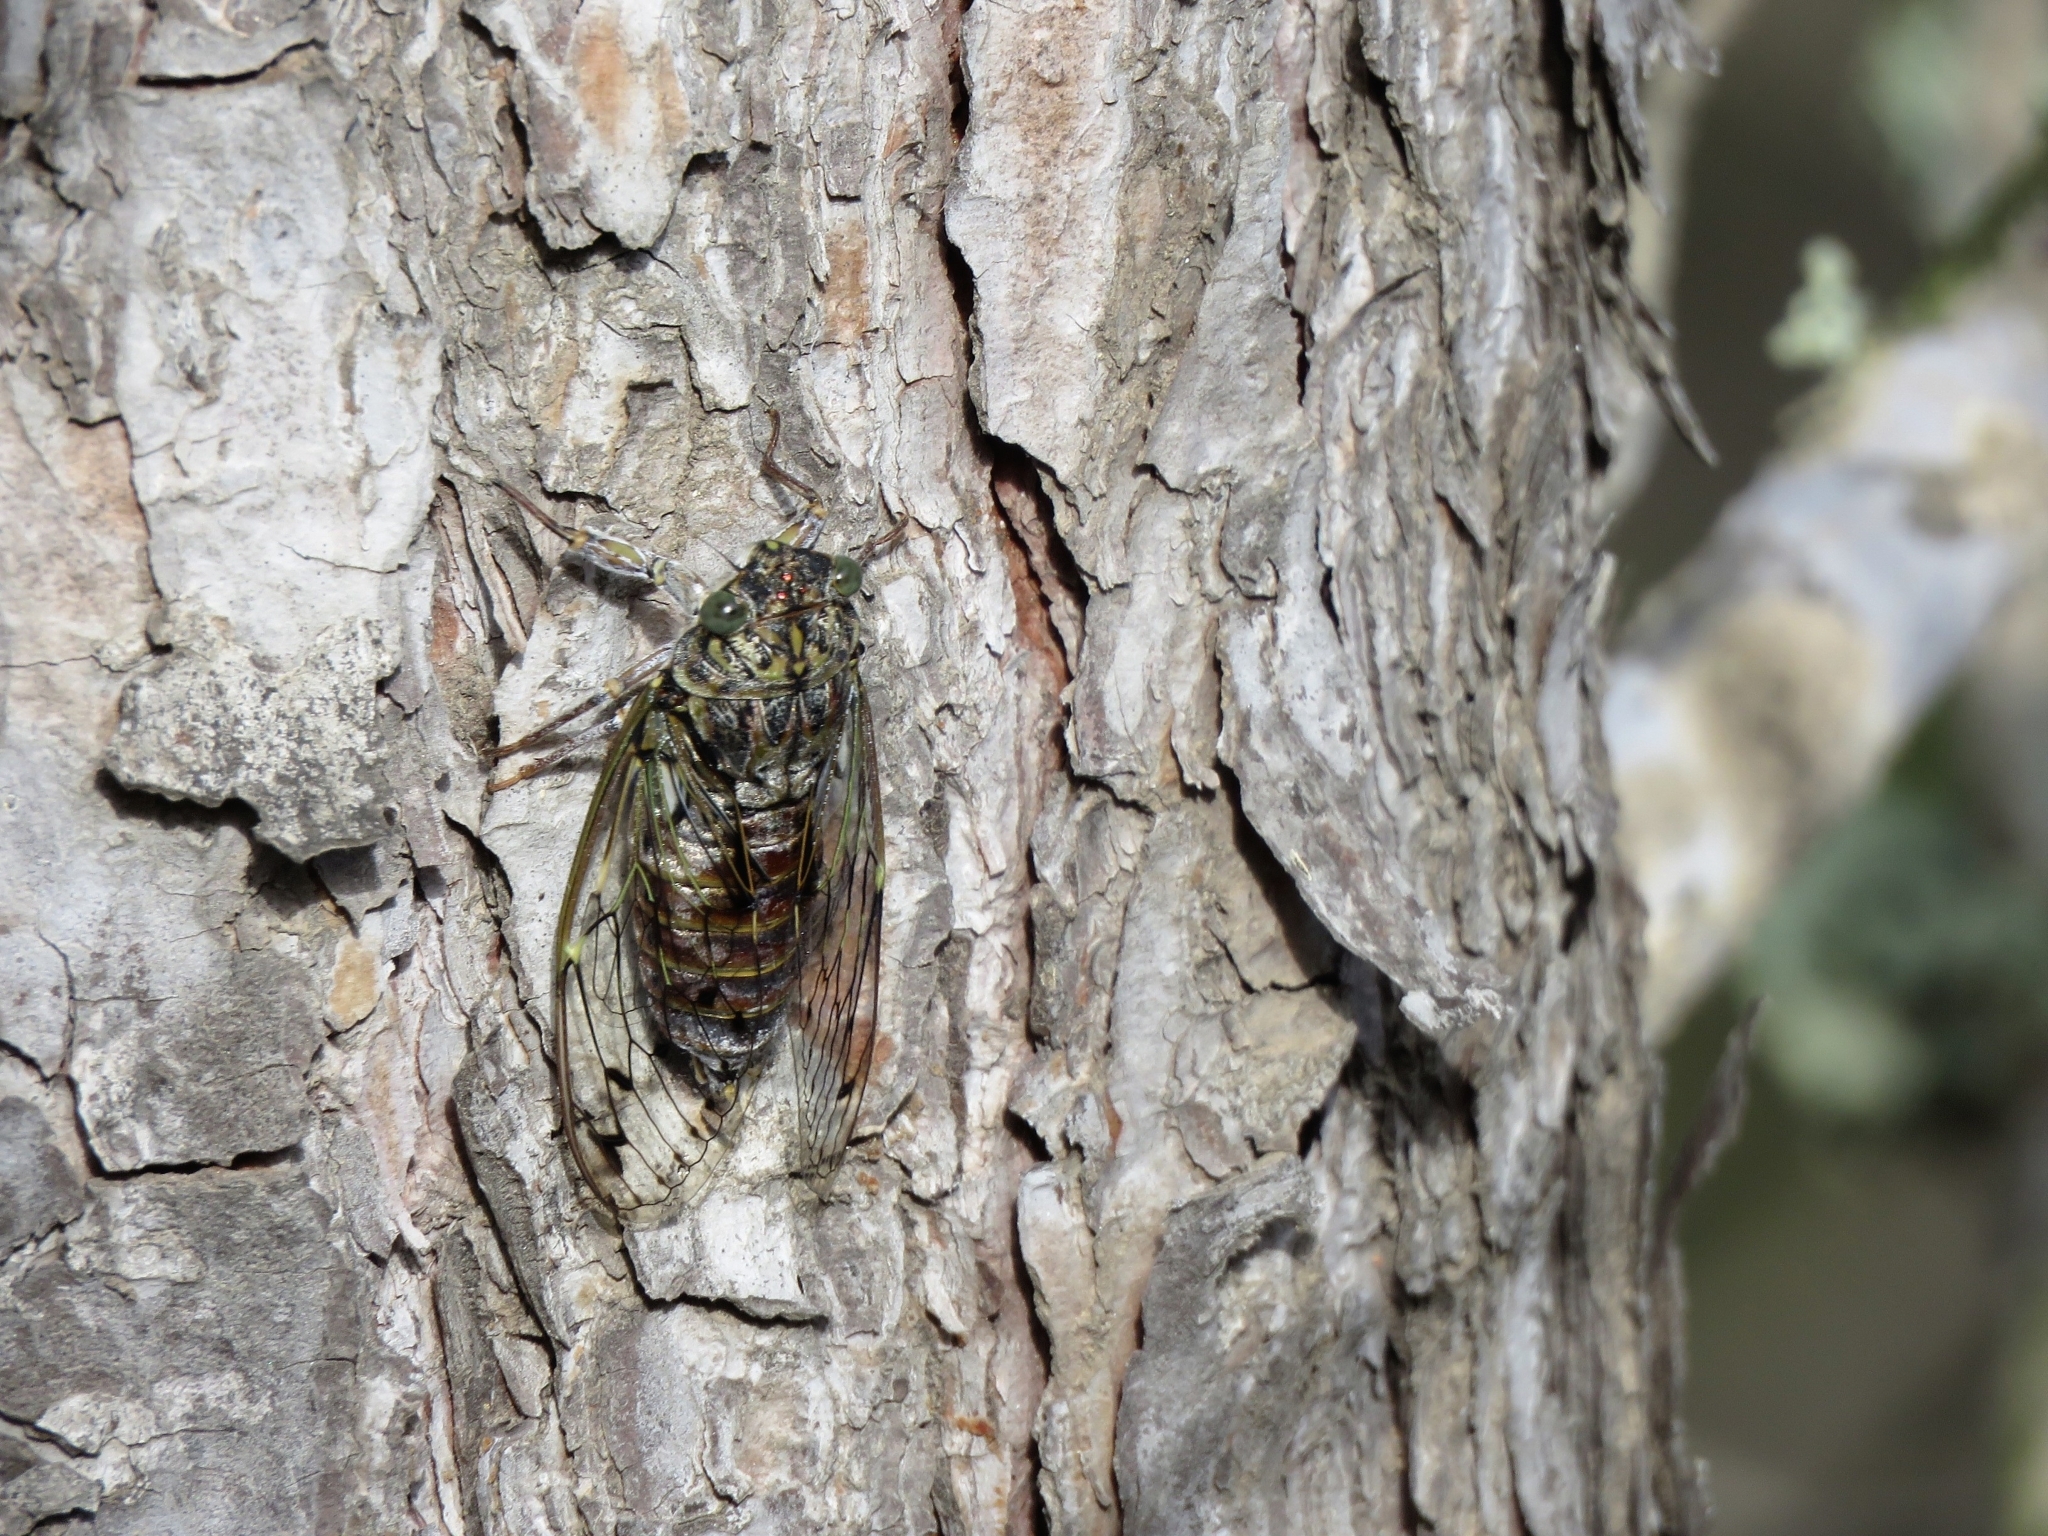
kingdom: Animalia
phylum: Arthropoda
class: Insecta
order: Hemiptera
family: Cicadidae
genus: Cicada
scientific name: Cicada orni
